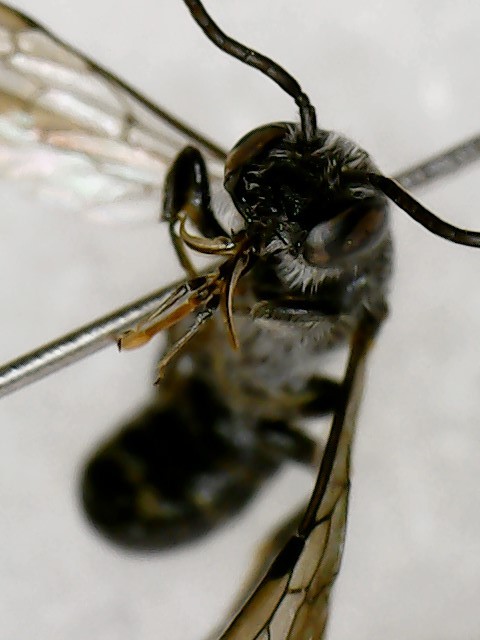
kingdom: Animalia
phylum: Arthropoda
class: Insecta
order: Hymenoptera
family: Megachilidae
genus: Chelostoma
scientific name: Chelostoma philadelphi
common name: Mock-orange scissor bee
